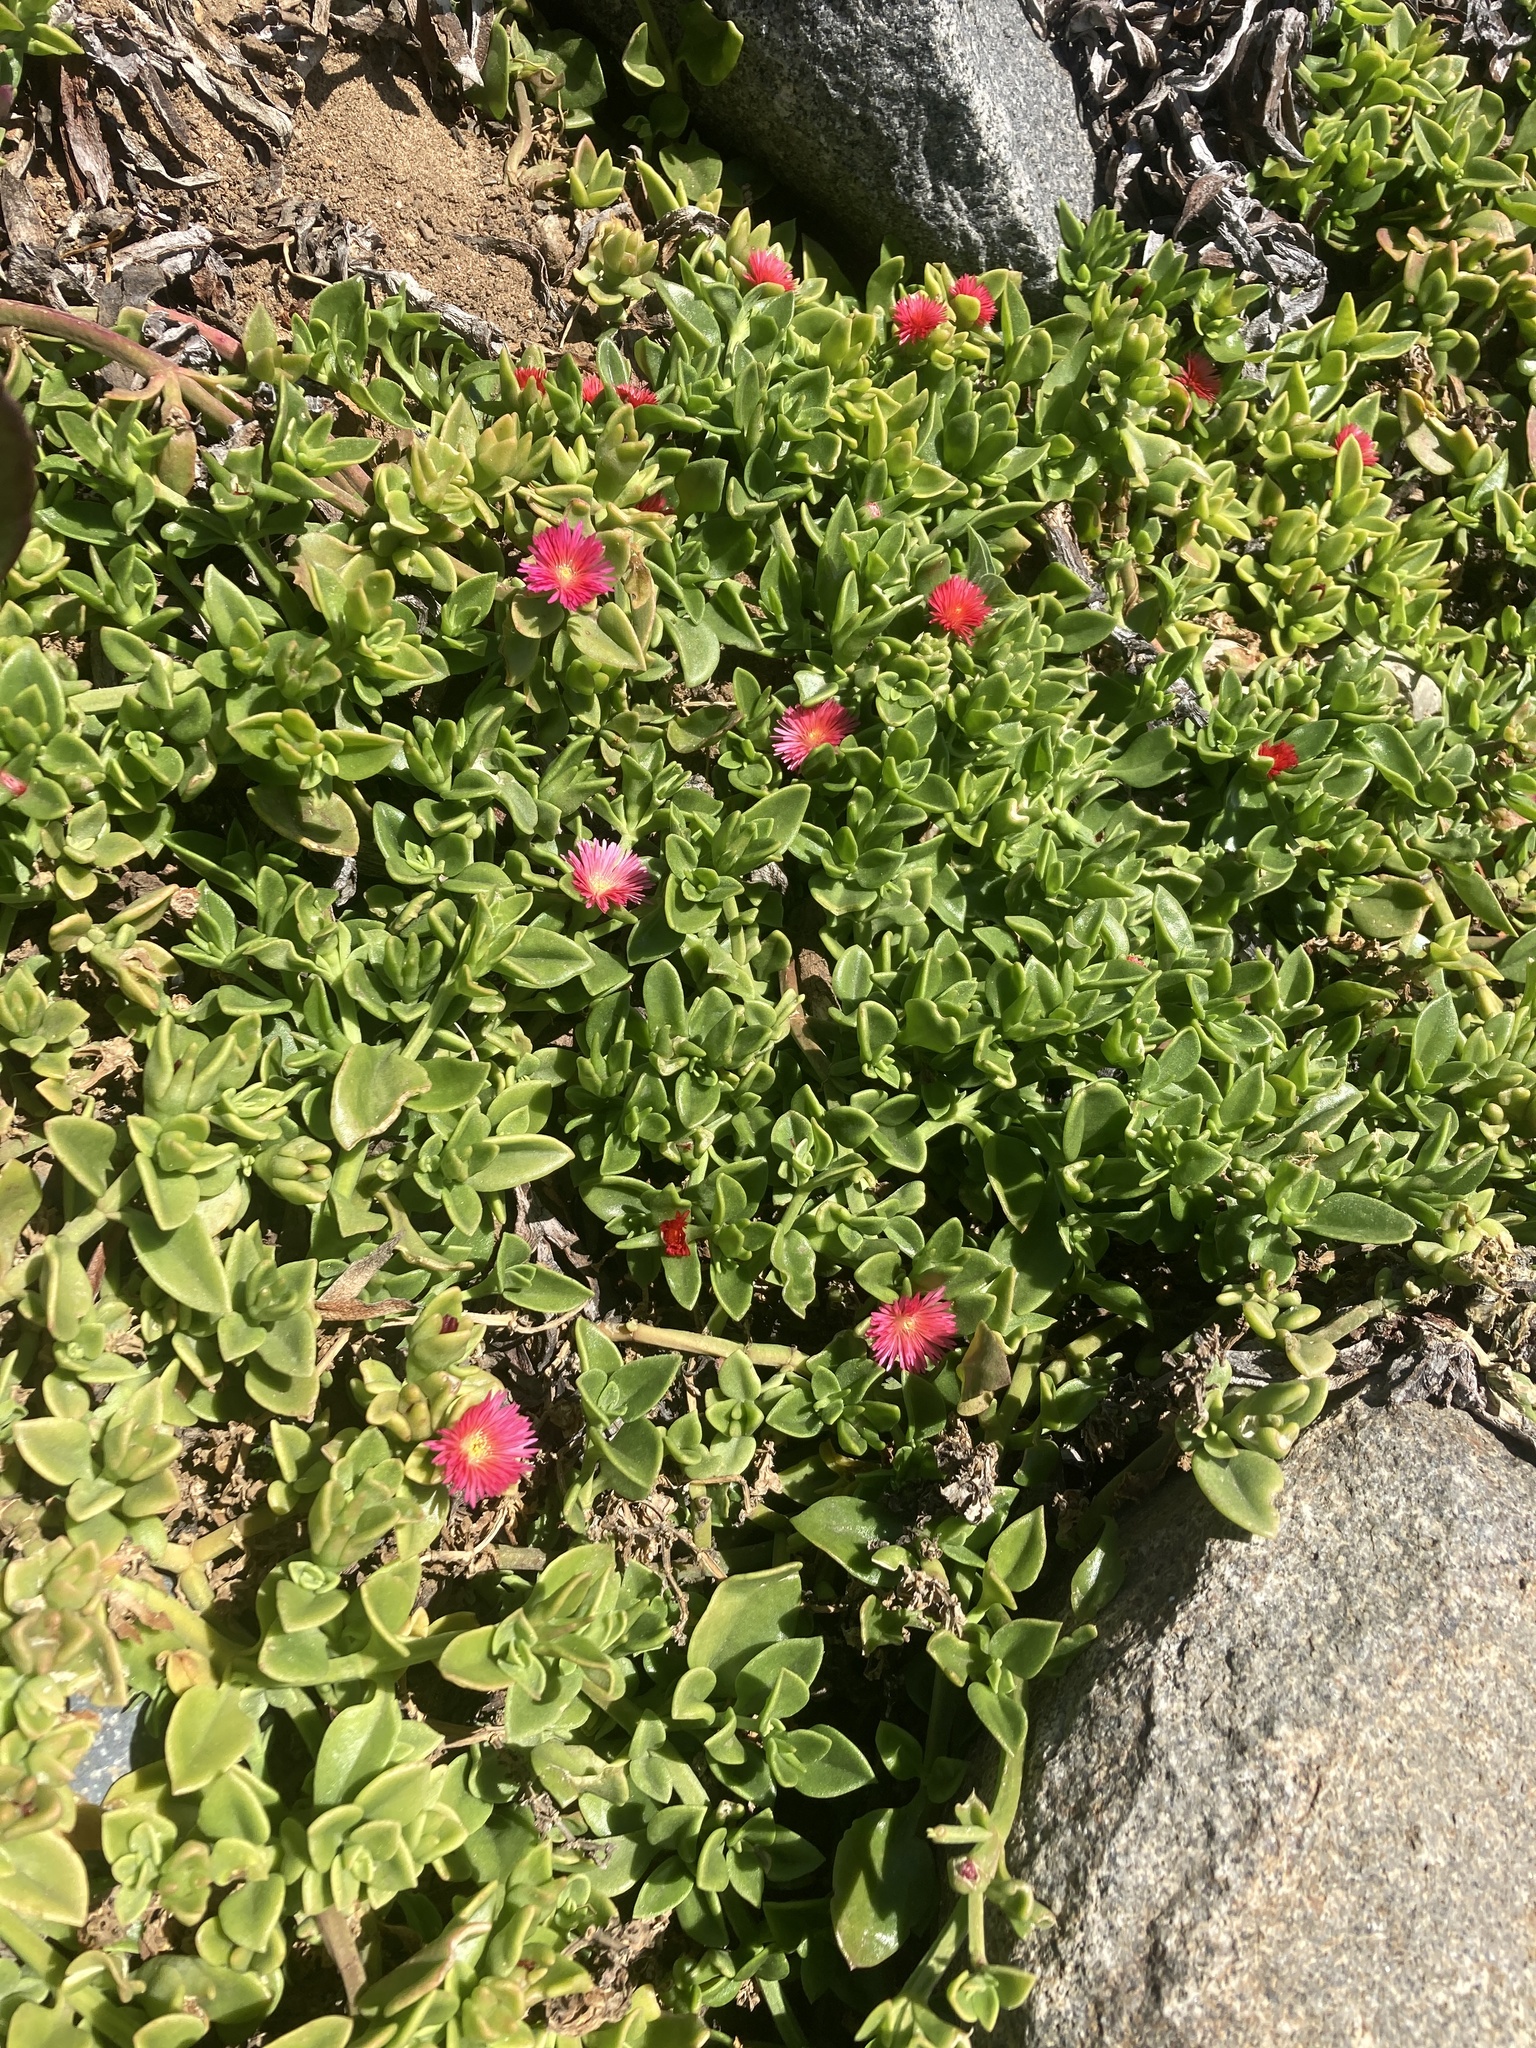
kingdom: Plantae
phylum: Tracheophyta
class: Magnoliopsida
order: Caryophyllales
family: Aizoaceae
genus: Mesembryanthemum
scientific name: Mesembryanthemum cordifolium
